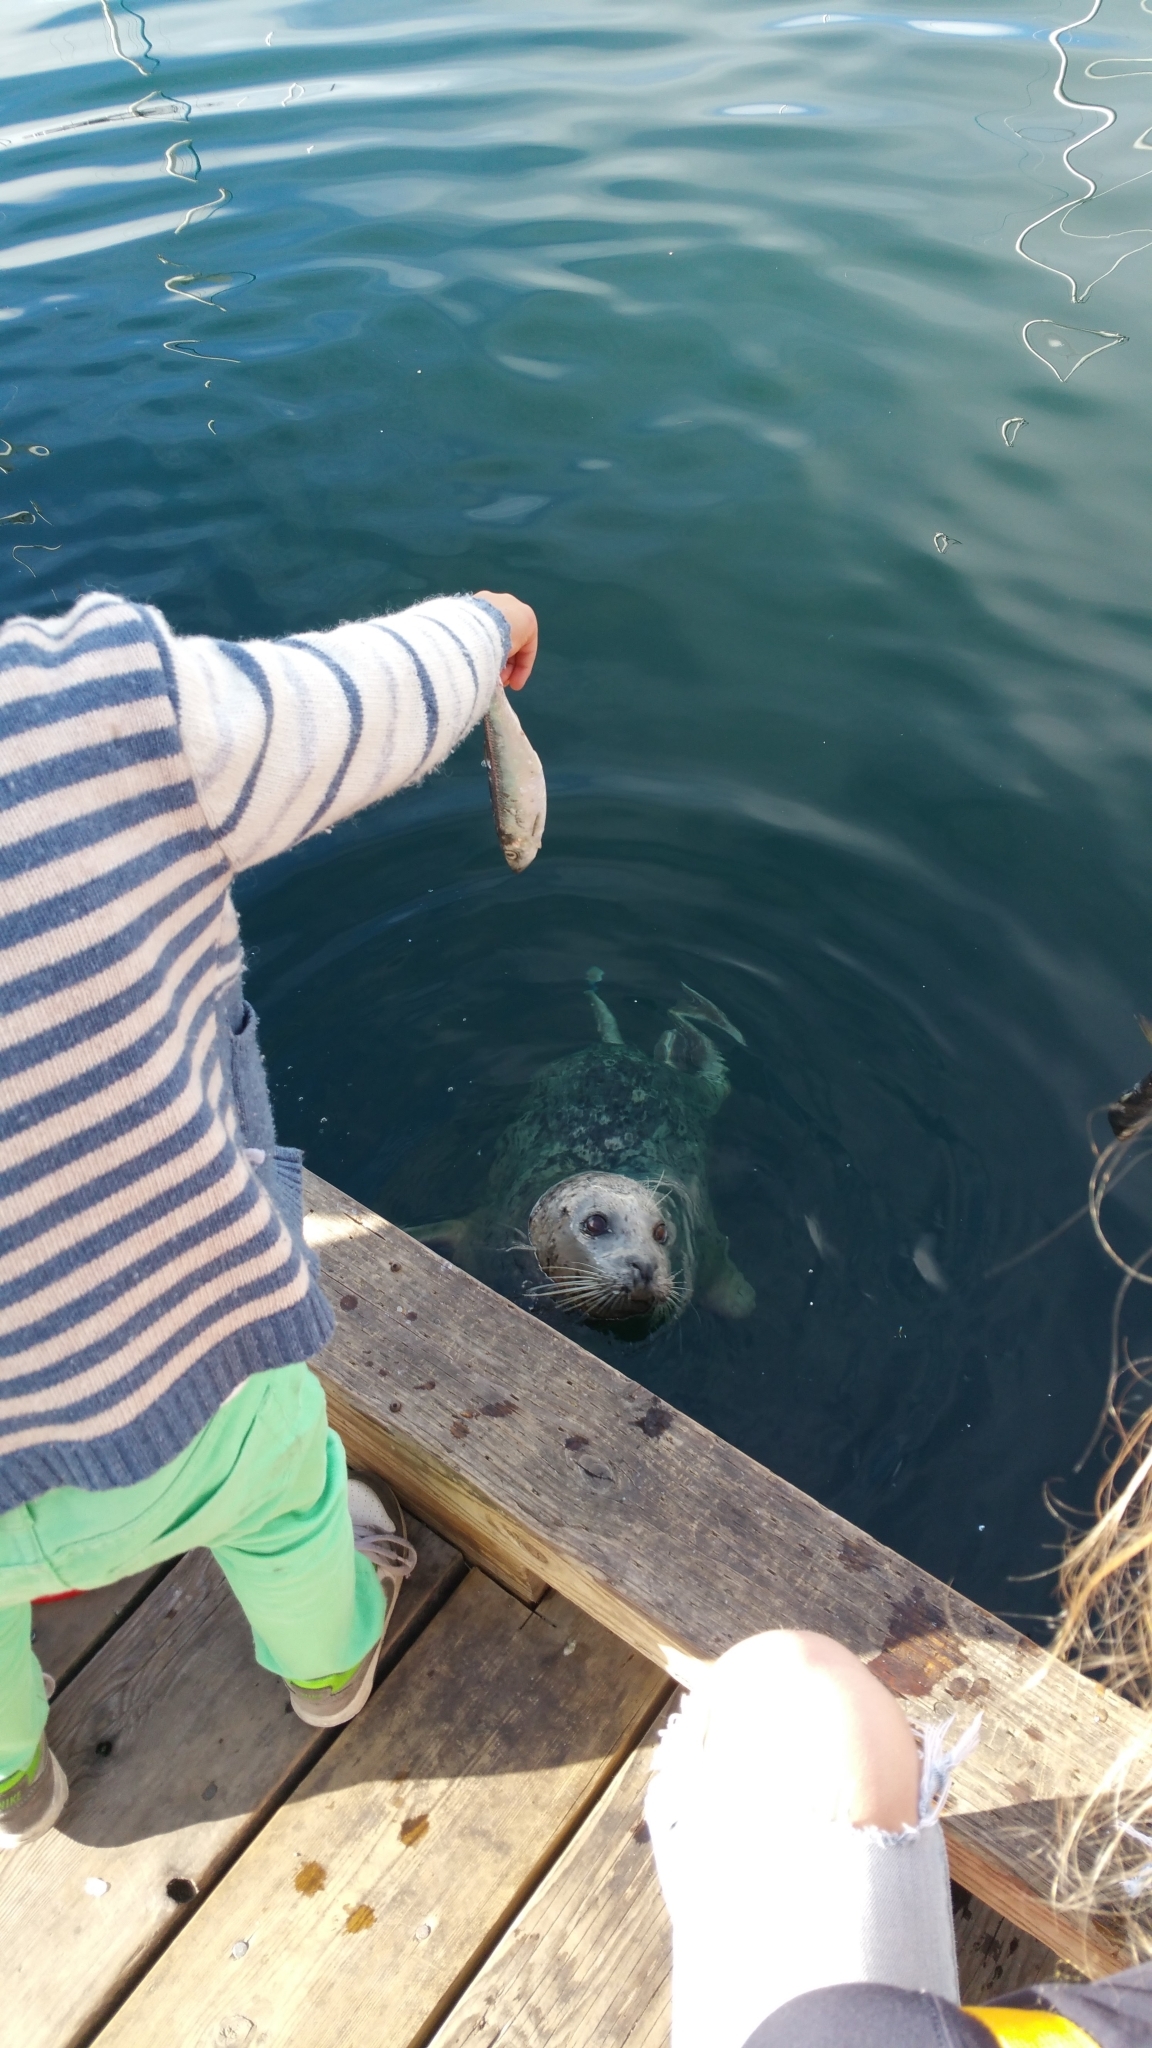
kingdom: Animalia
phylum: Chordata
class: Mammalia
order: Carnivora
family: Phocidae
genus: Phoca
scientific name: Phoca vitulina
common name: Harbor seal
